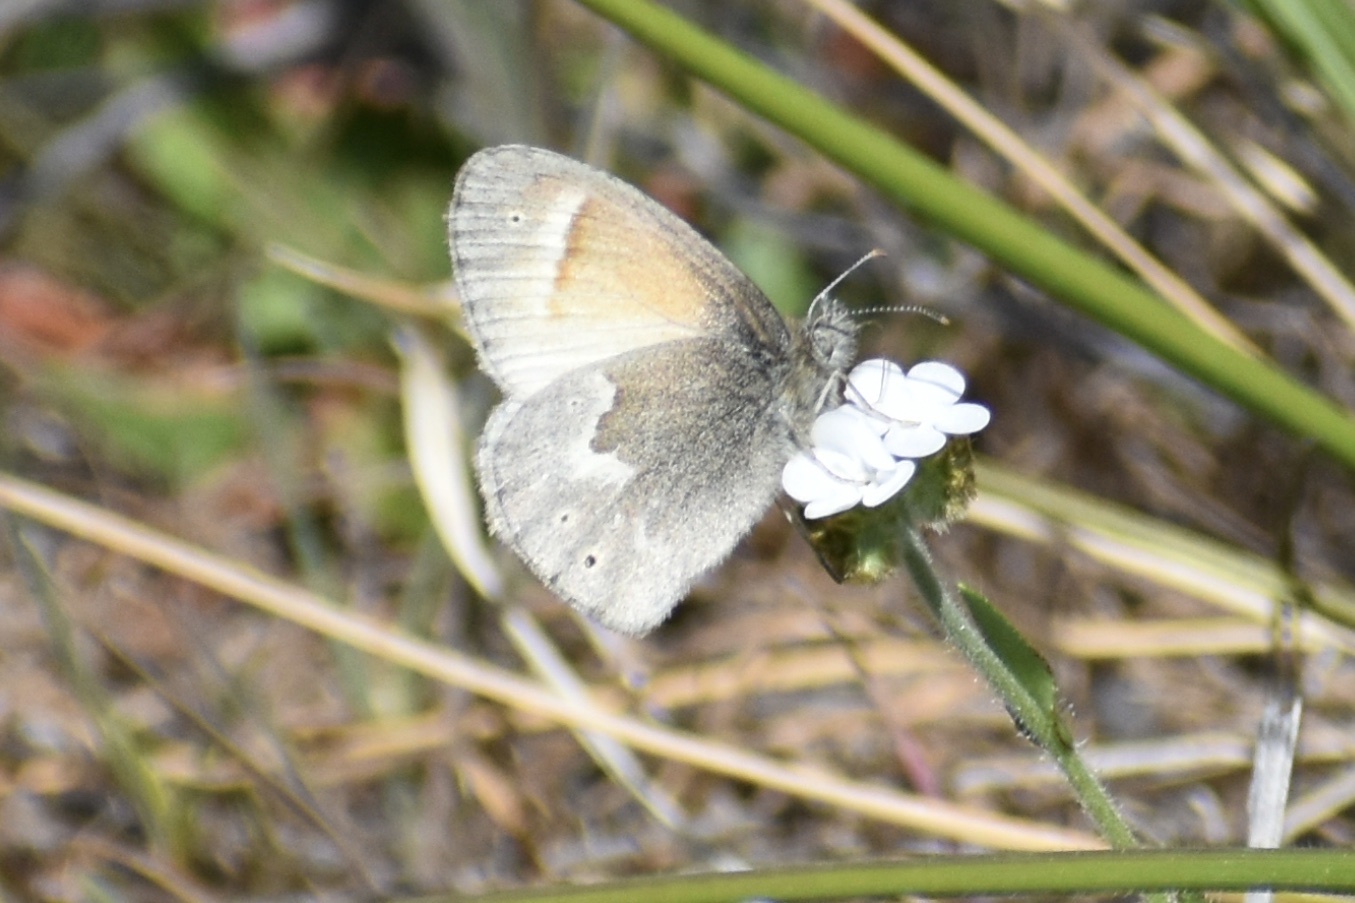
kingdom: Animalia
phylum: Arthropoda
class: Insecta
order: Lepidoptera
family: Nymphalidae
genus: Coenonympha
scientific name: Coenonympha california
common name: Common ringlet
